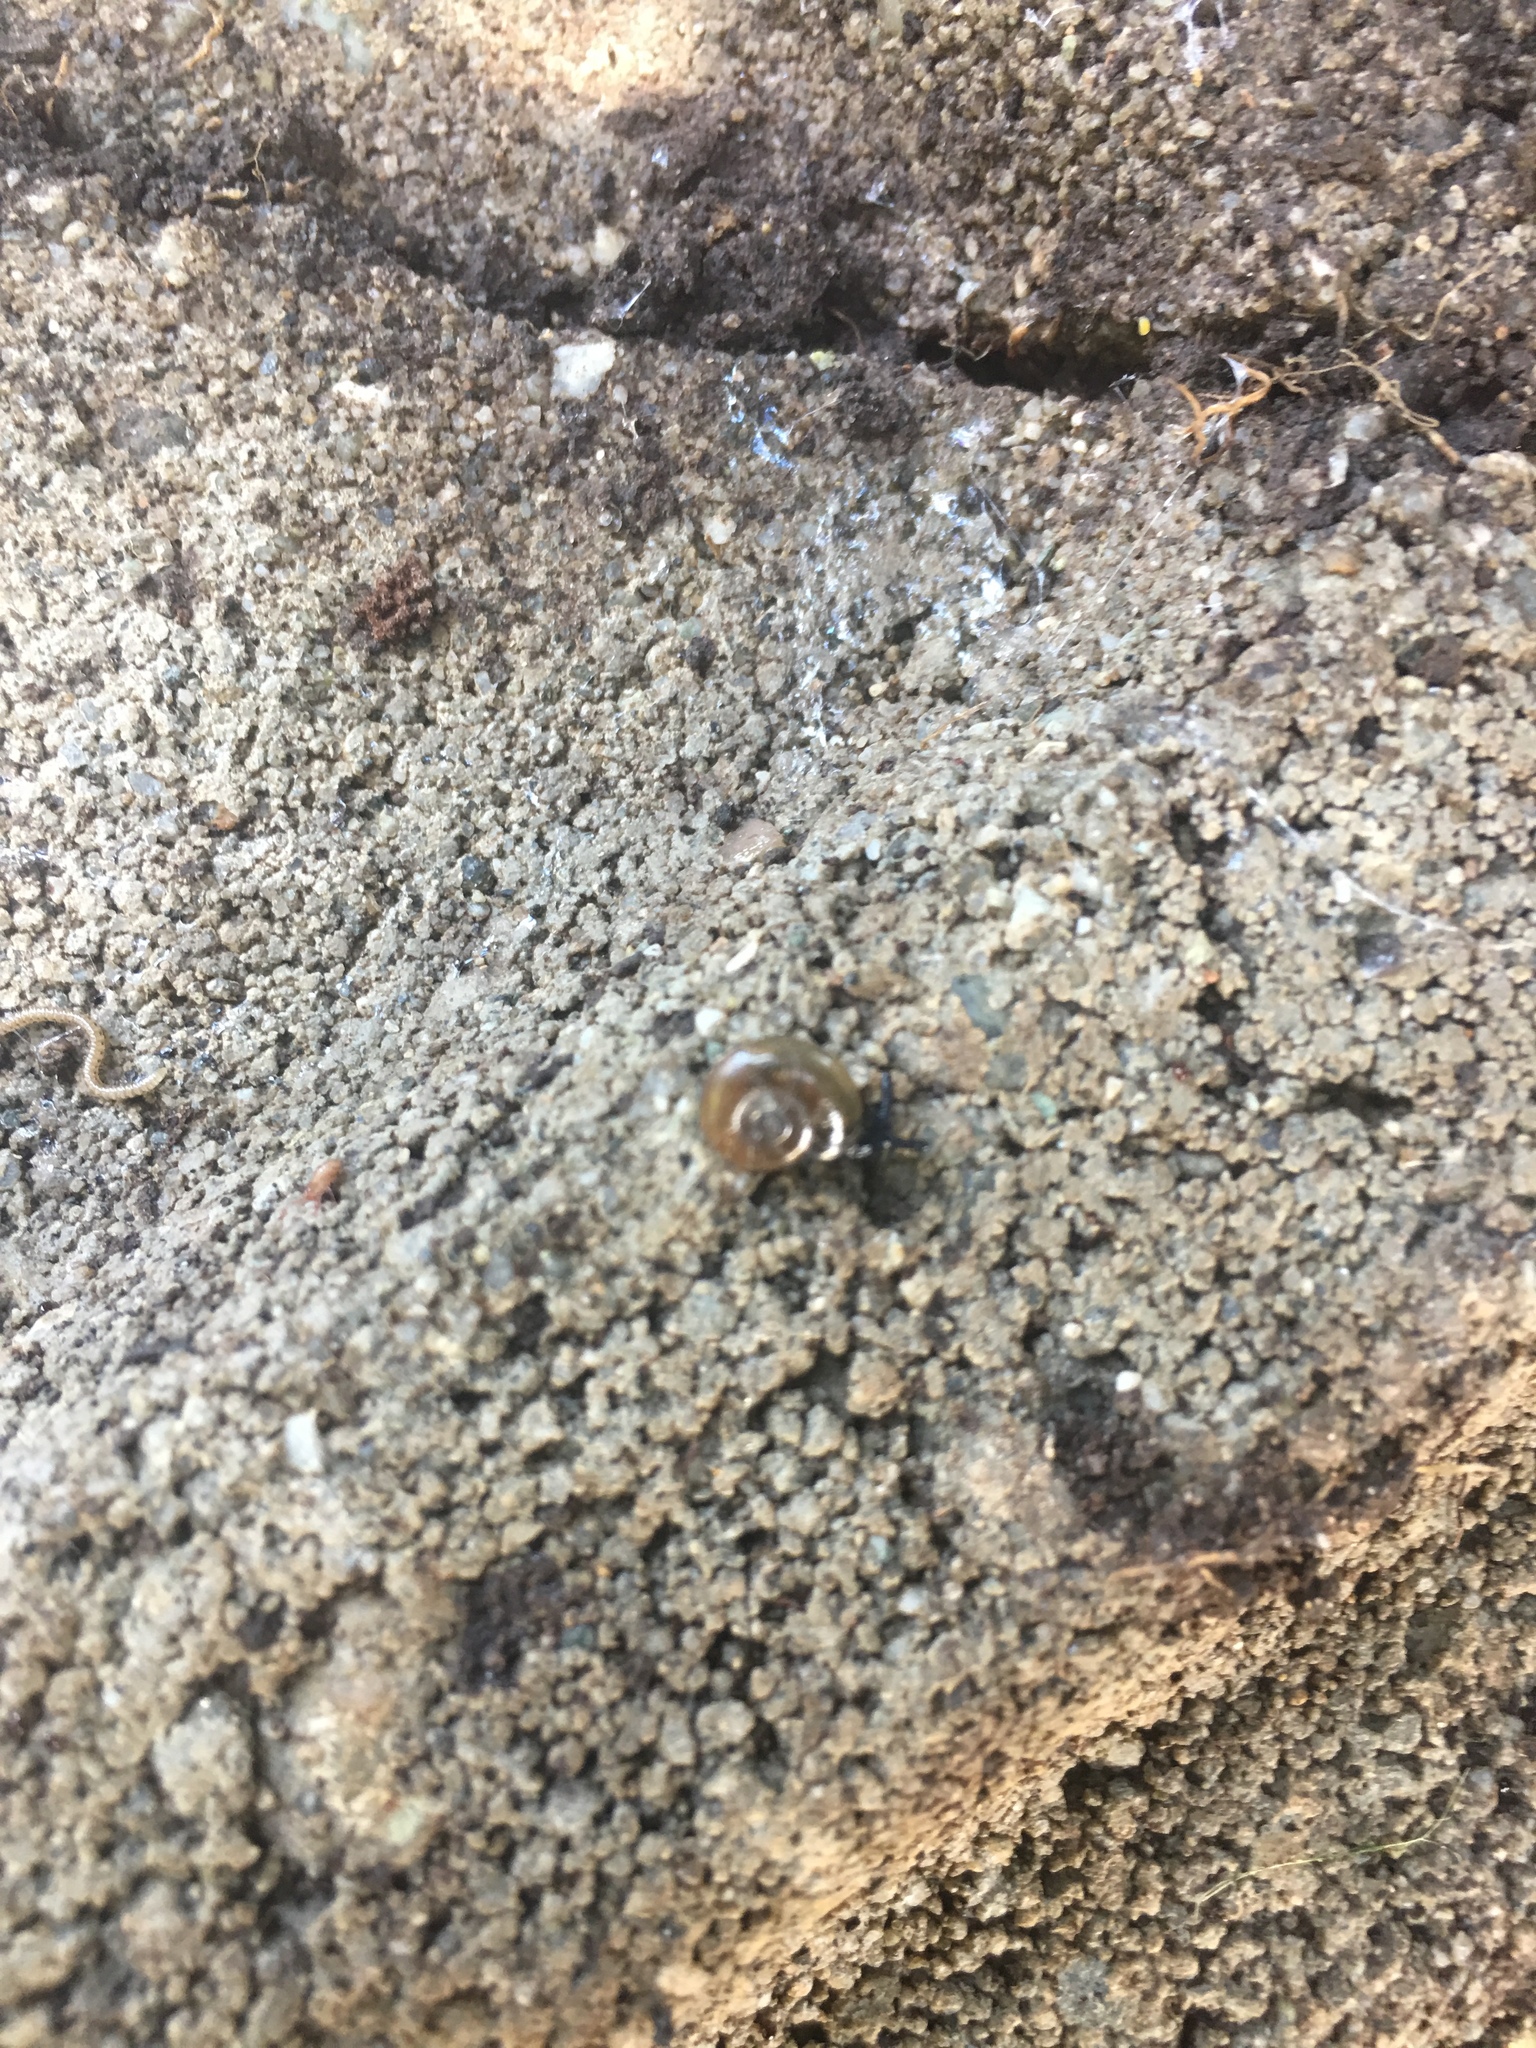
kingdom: Animalia
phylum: Mollusca
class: Gastropoda
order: Stylommatophora
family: Oxychilidae
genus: Oxychilus
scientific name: Oxychilus draparnaudi
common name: Draparnaud's glass snail
